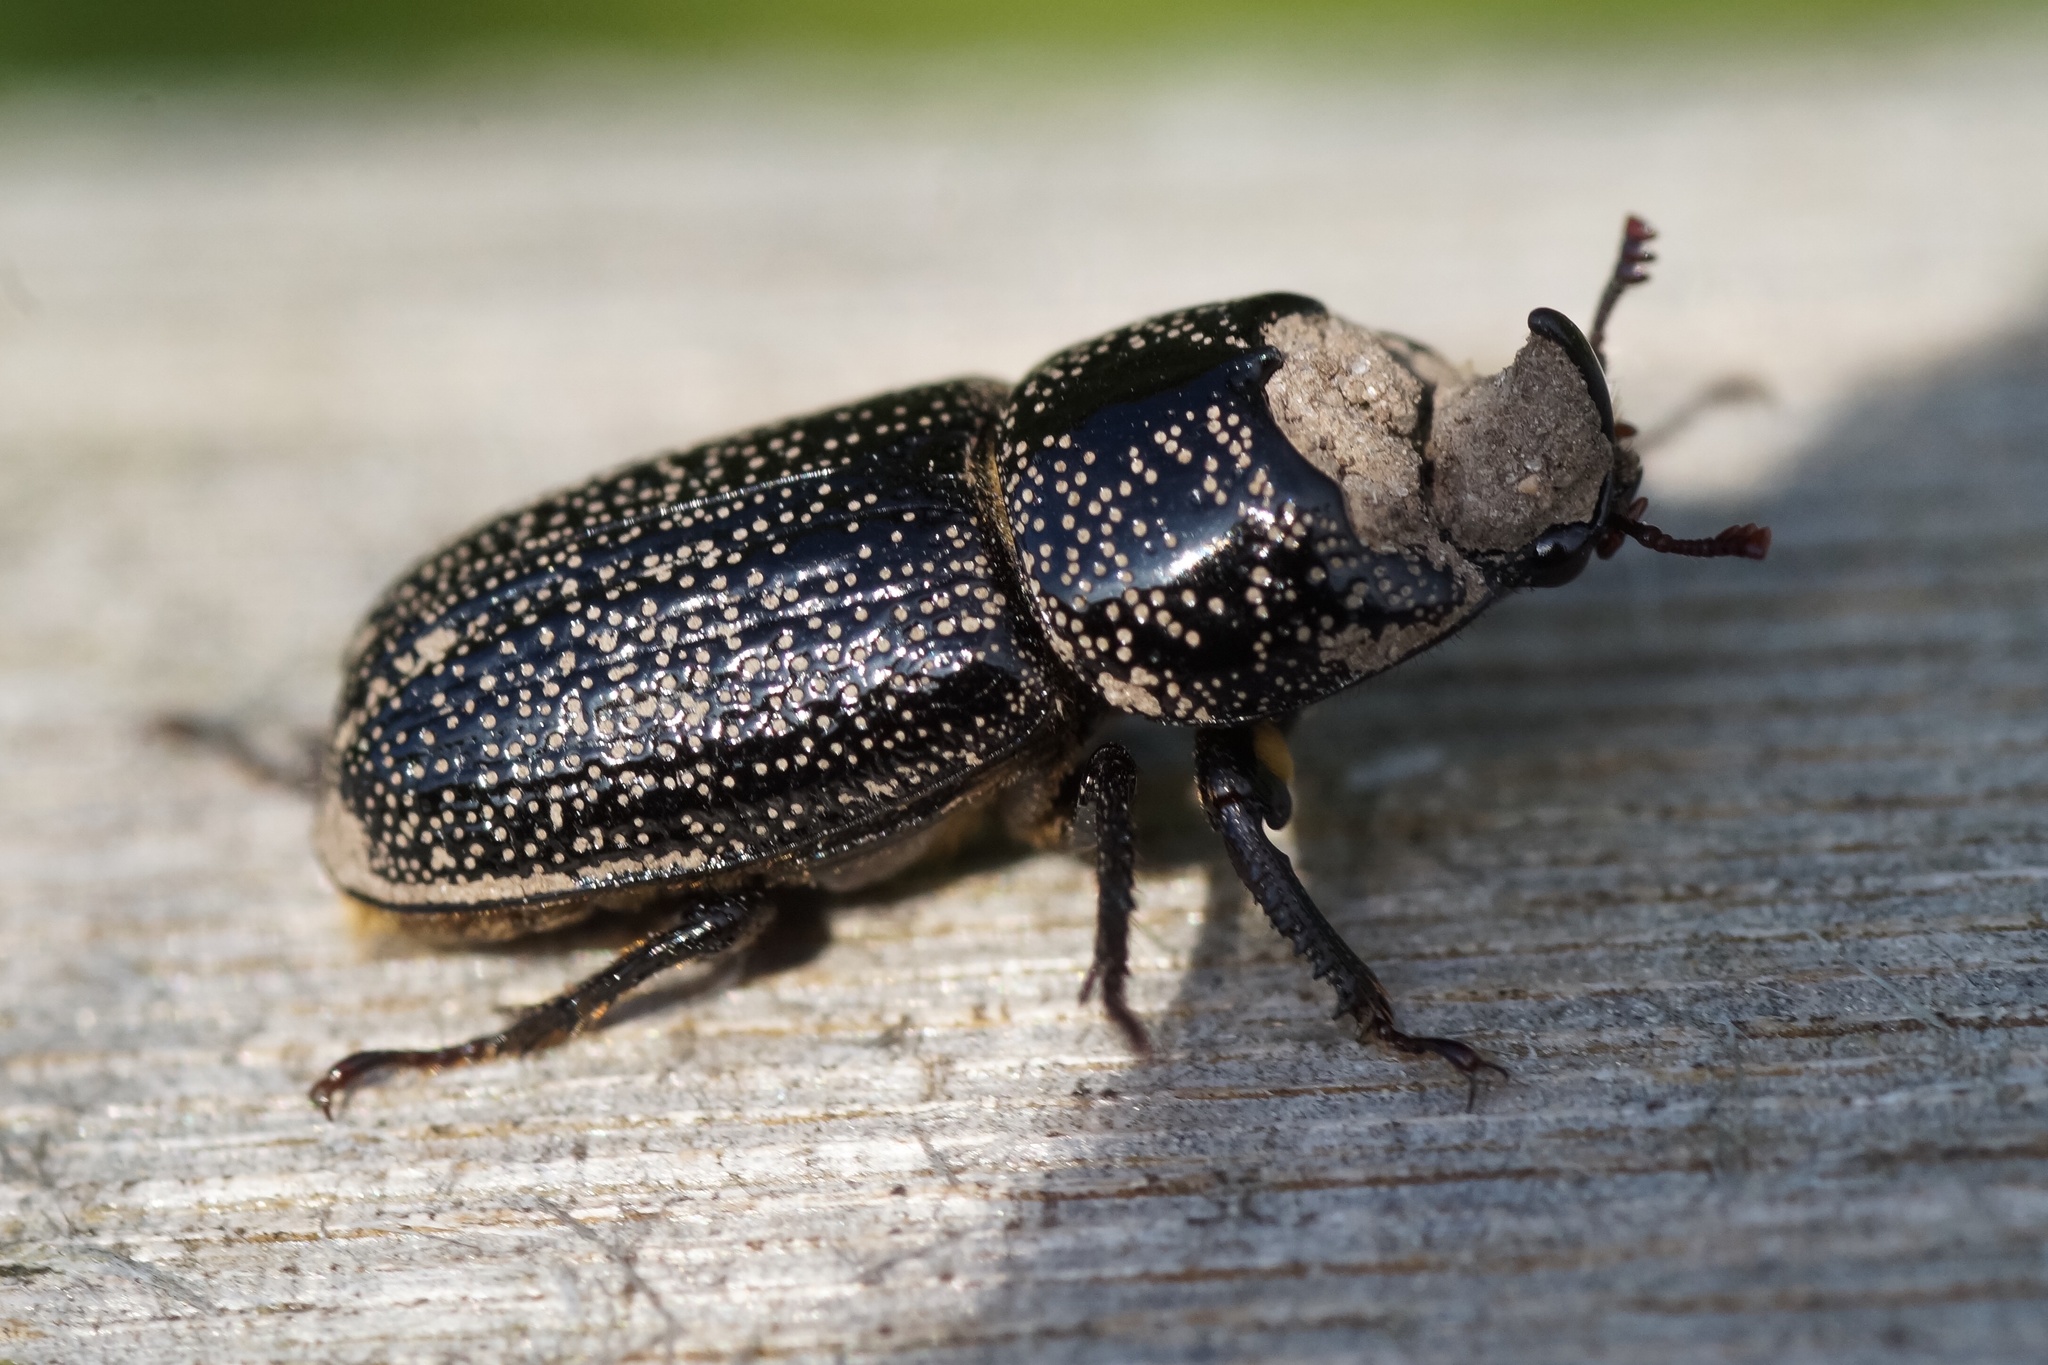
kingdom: Animalia
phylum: Arthropoda
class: Insecta
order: Coleoptera
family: Lucanidae
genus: Sinodendron
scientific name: Sinodendron cylindricum
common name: Rhinoceros beetle
